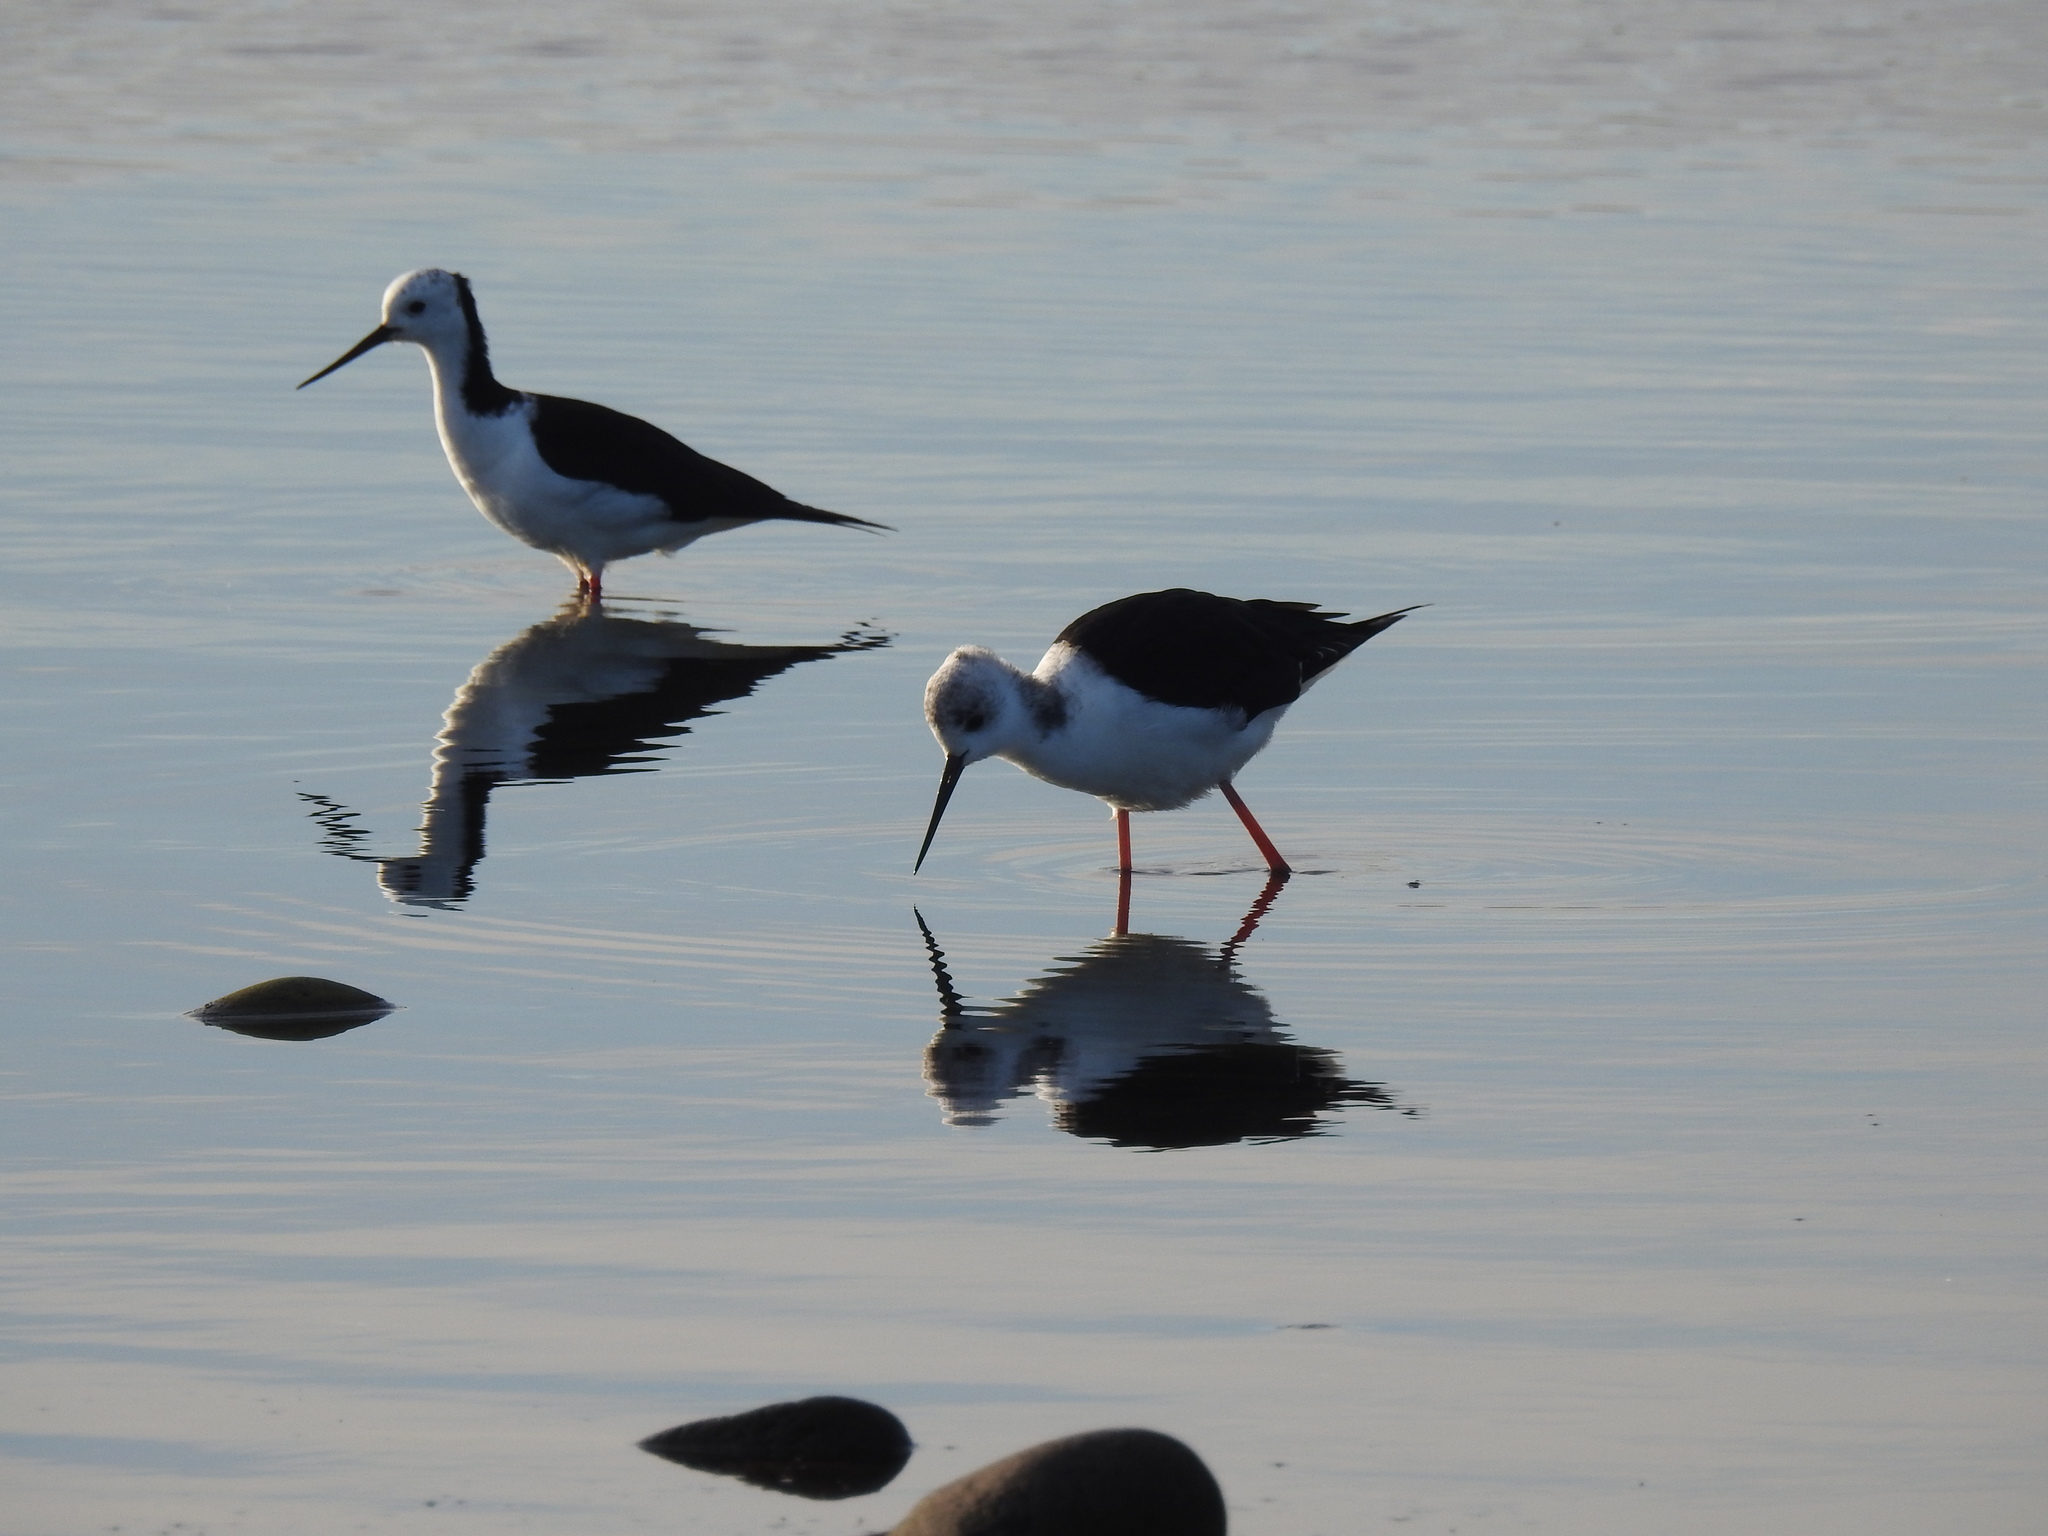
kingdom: Animalia
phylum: Chordata
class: Aves
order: Charadriiformes
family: Recurvirostridae
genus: Himantopus
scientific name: Himantopus leucocephalus
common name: White-headed stilt
